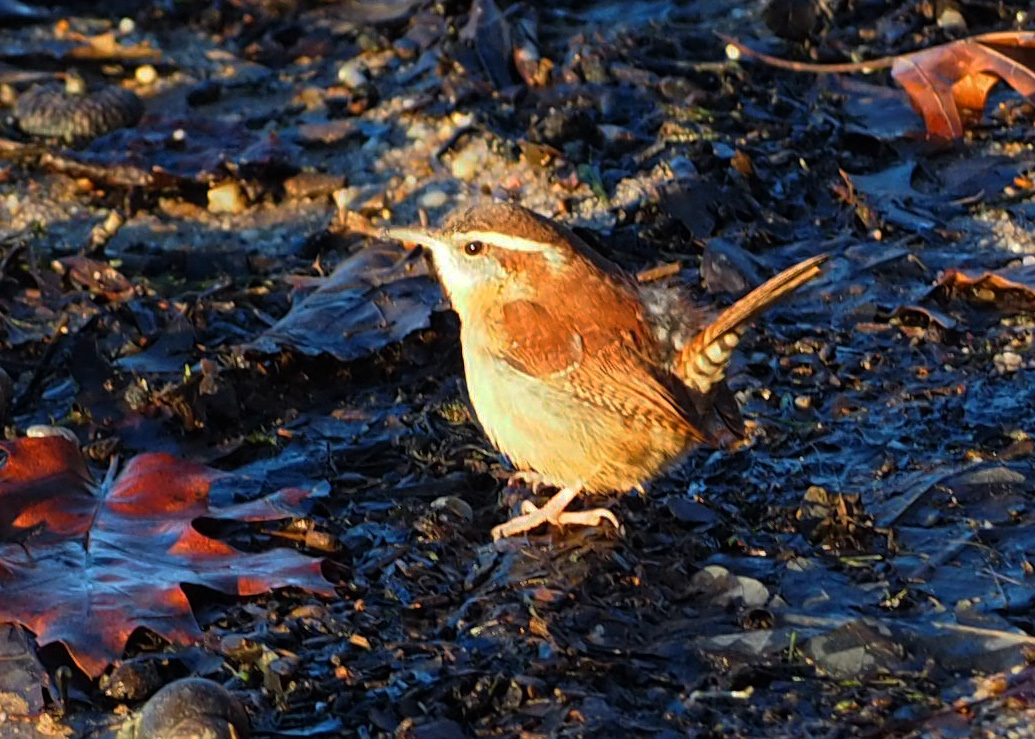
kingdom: Animalia
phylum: Chordata
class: Aves
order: Passeriformes
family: Troglodytidae
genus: Thryothorus
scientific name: Thryothorus ludovicianus
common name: Carolina wren
